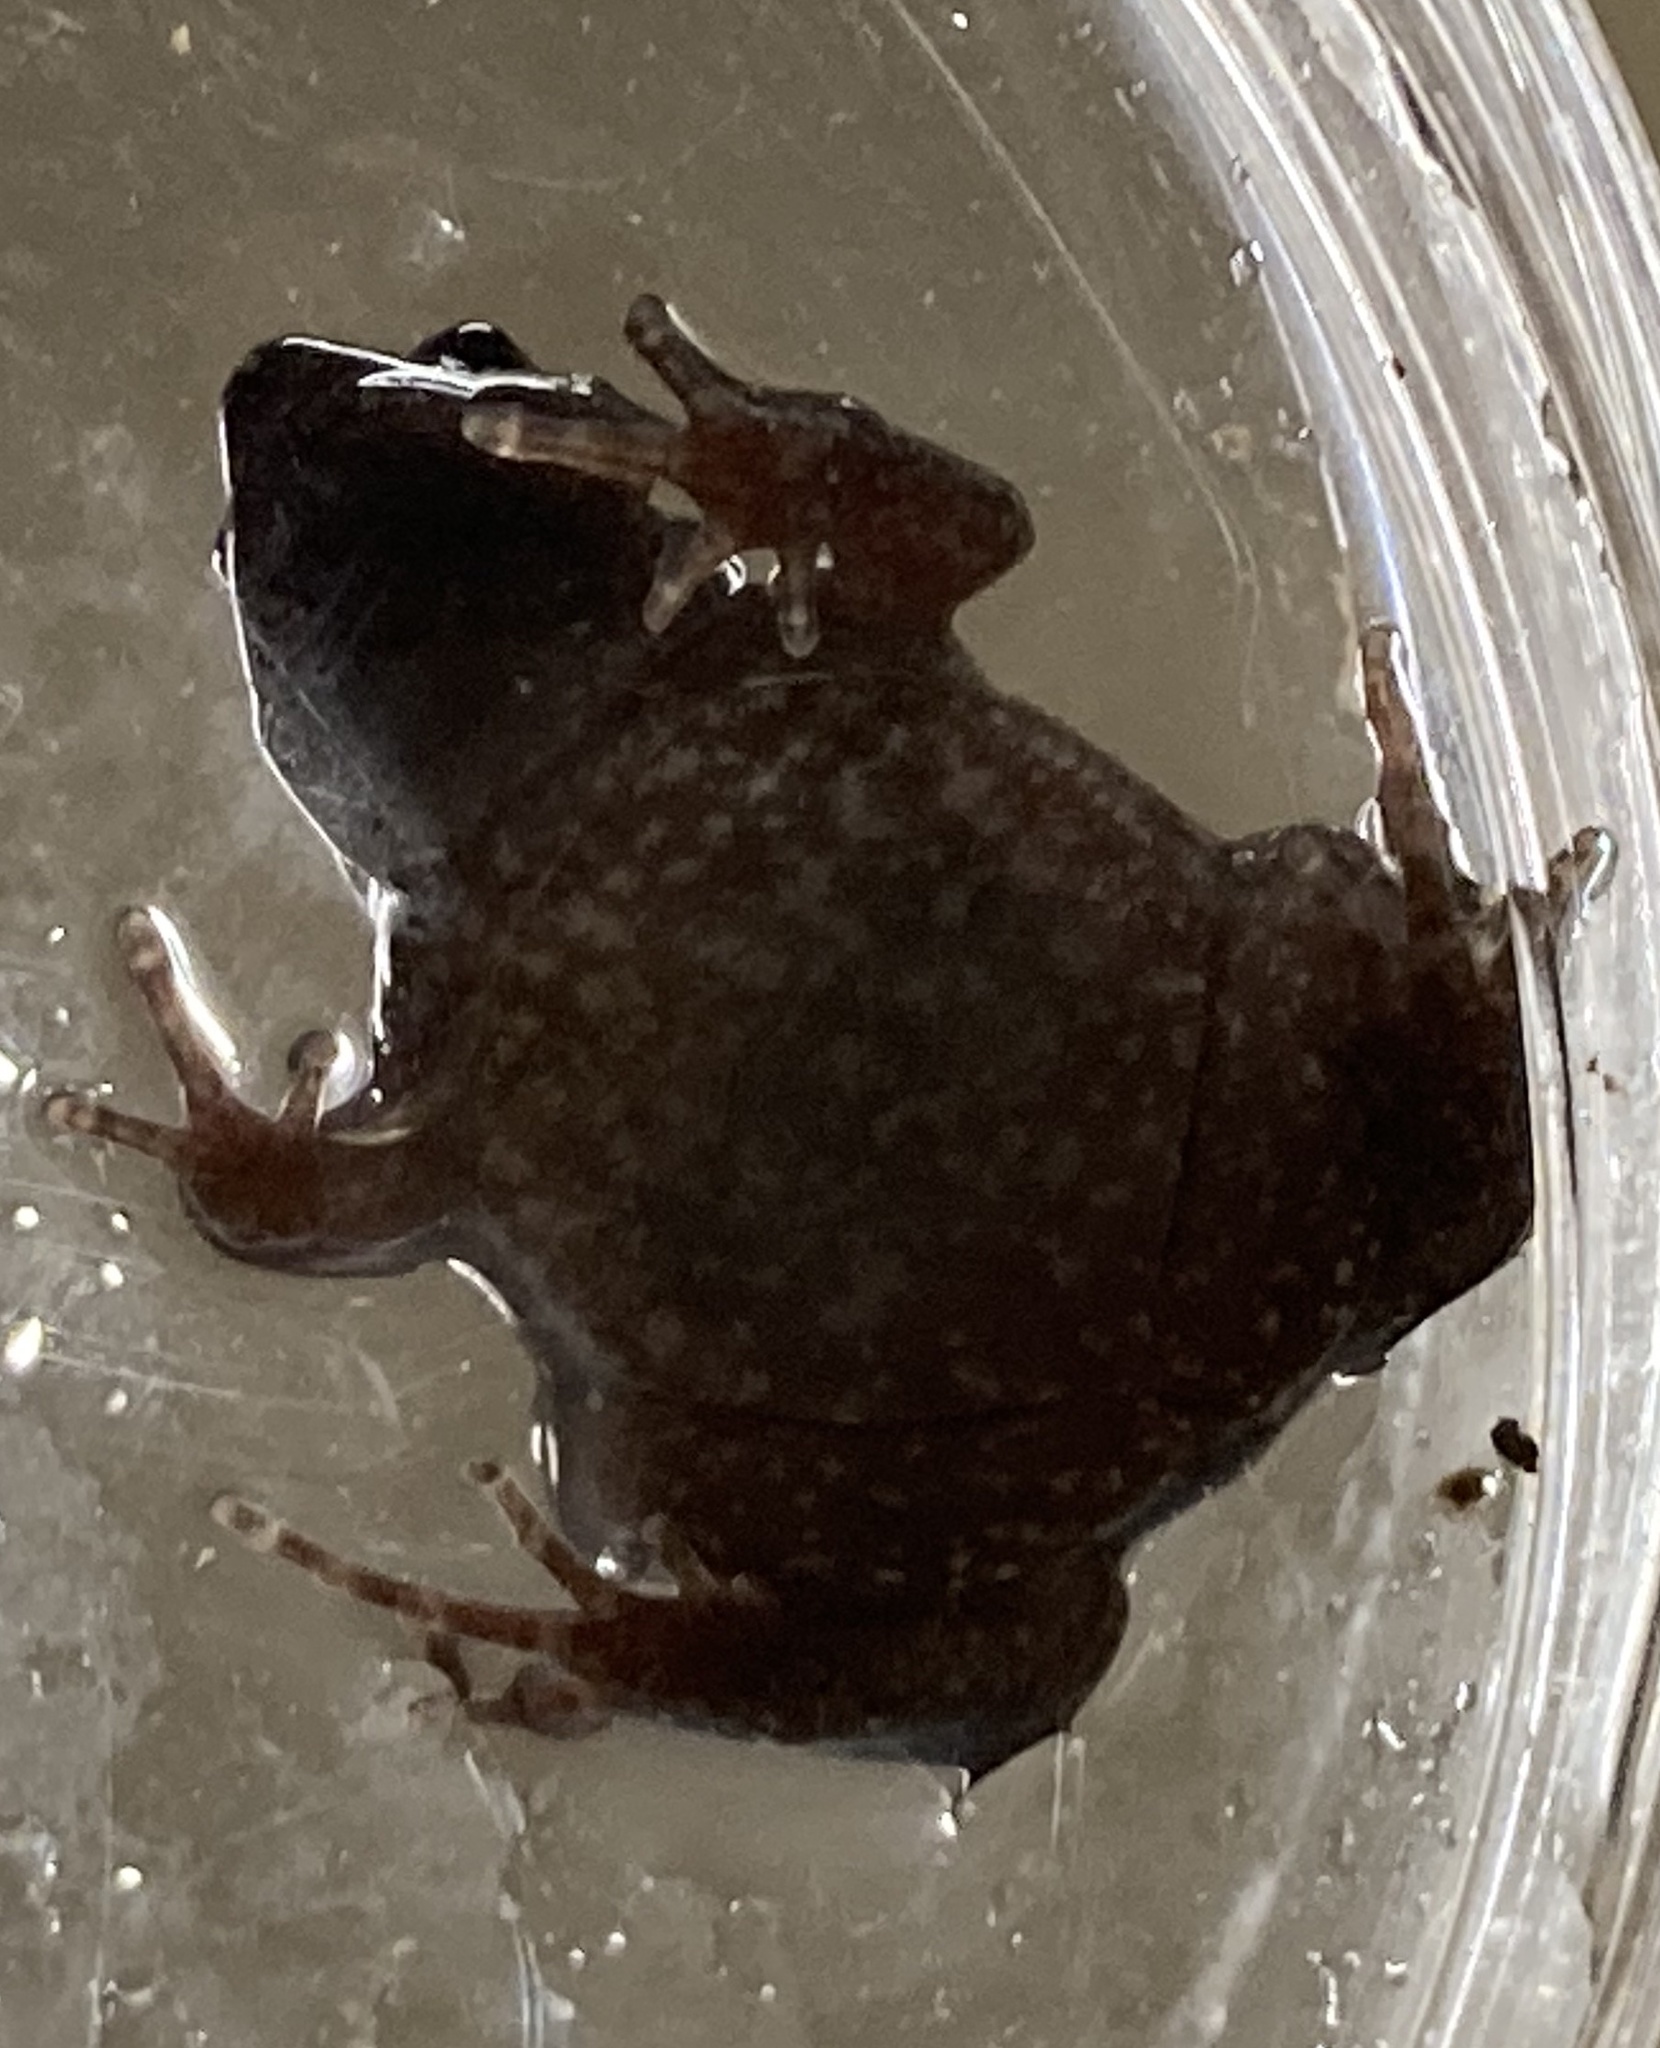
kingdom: Animalia
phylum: Chordata
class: Amphibia
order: Anura
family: Microhylidae
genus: Gastrophryne
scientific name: Gastrophryne carolinensis
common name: Eastern narrowmouth toad
